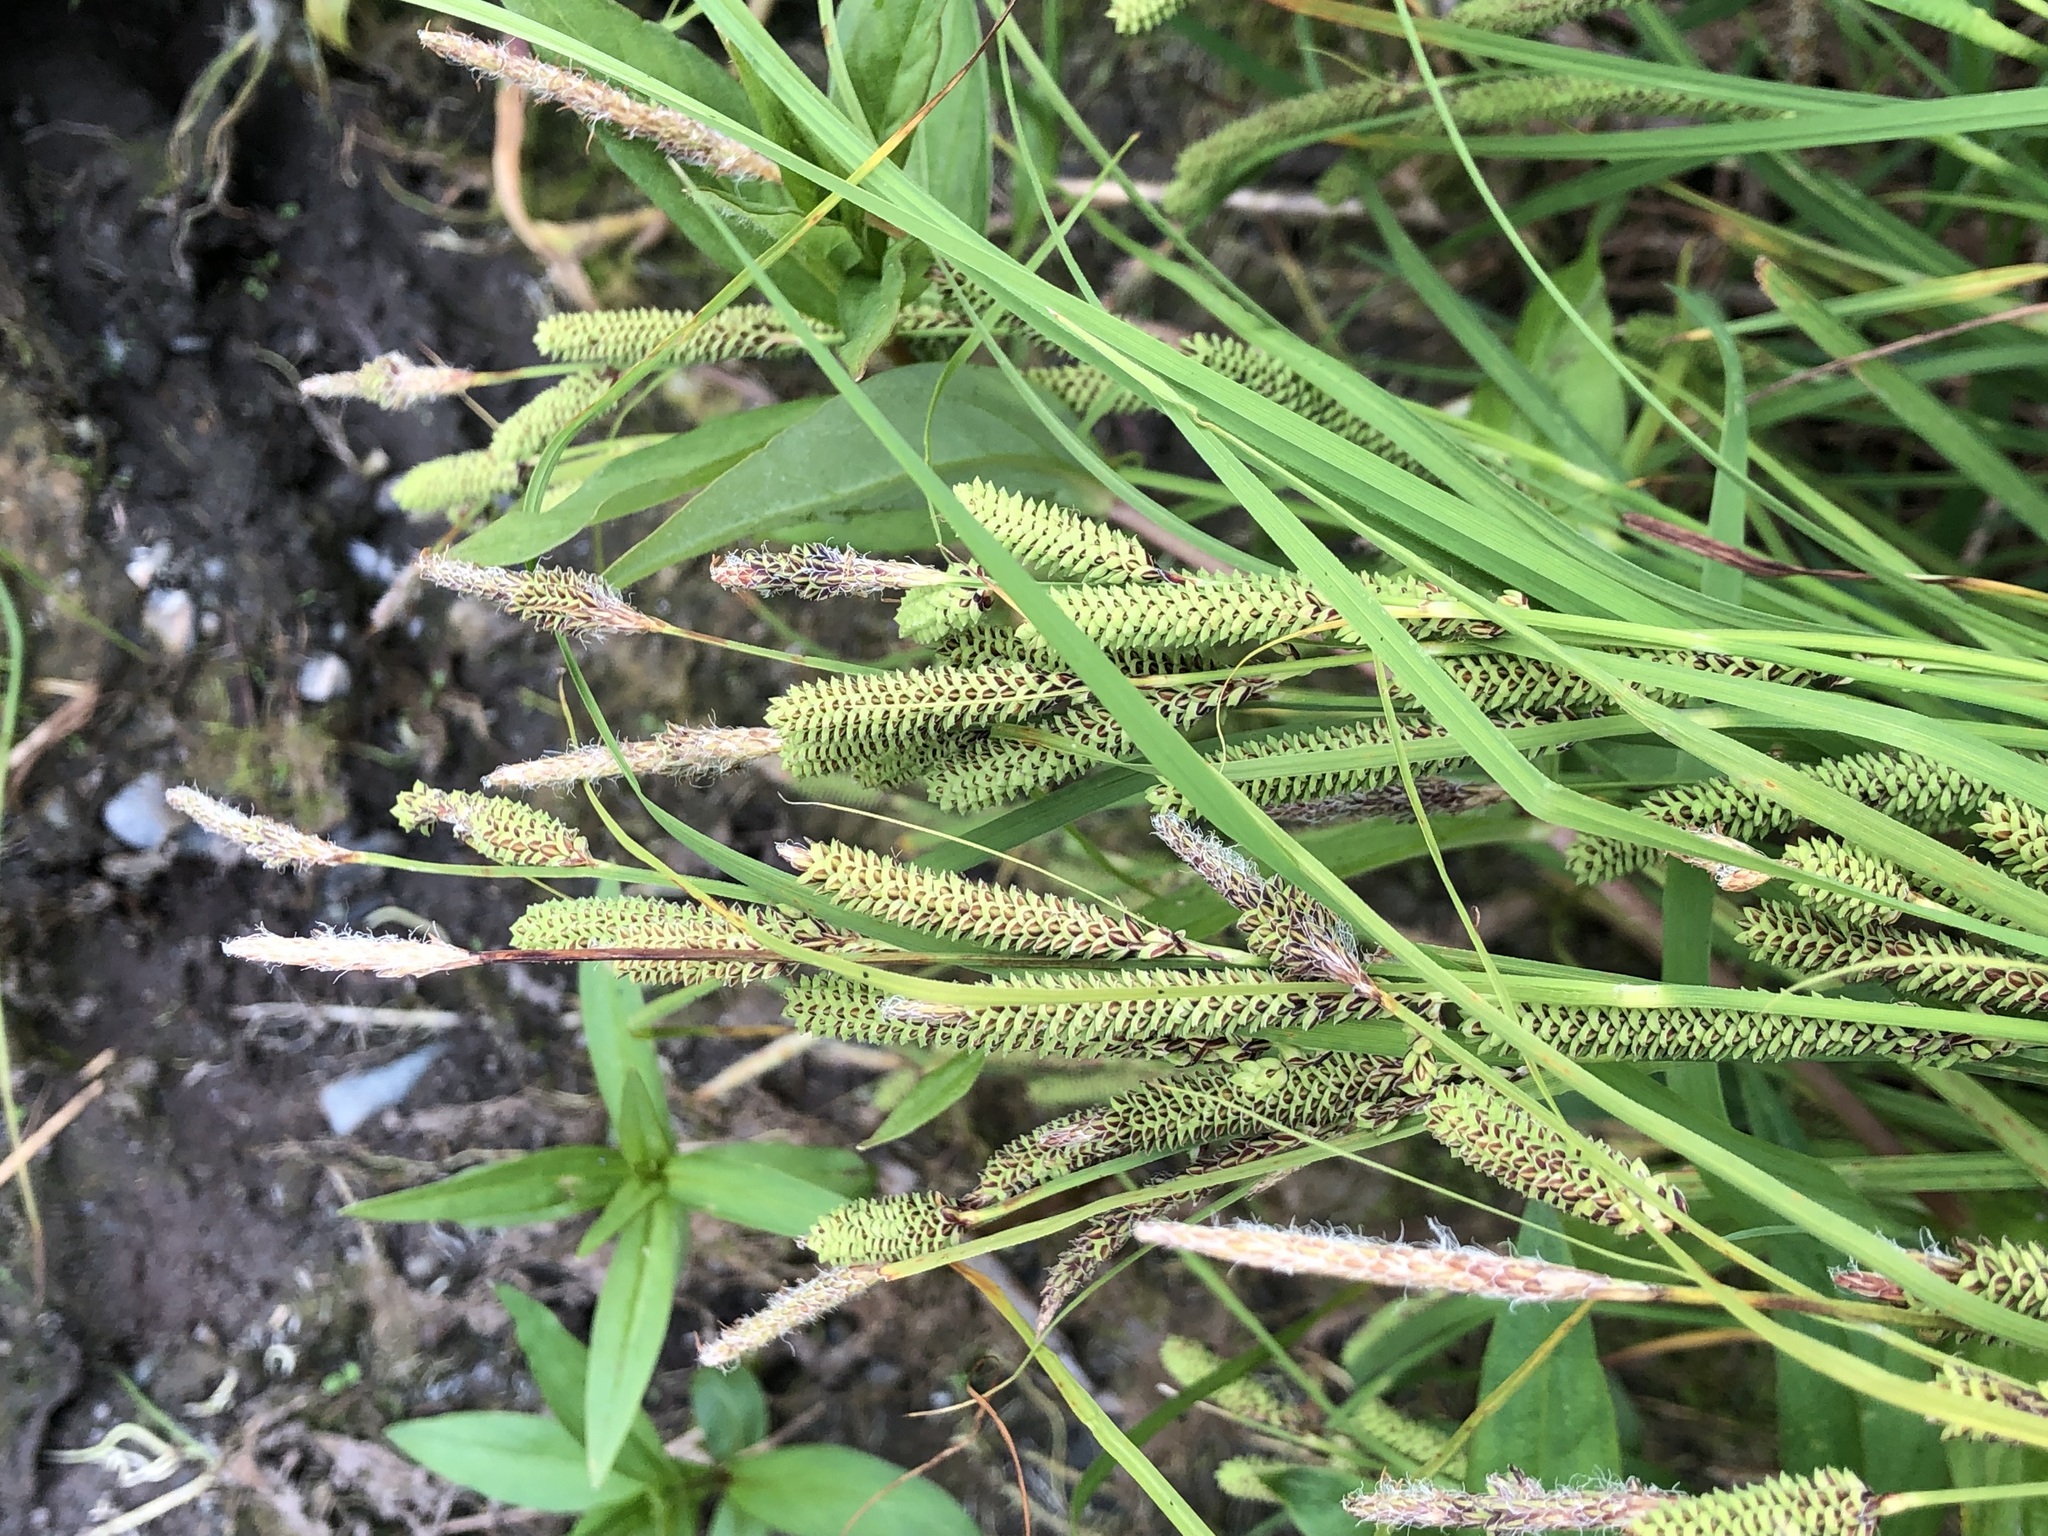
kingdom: Plantae
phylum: Tracheophyta
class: Liliopsida
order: Poales
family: Cyperaceae
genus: Carex
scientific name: Carex kelloggii
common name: Kellogg's sedge
